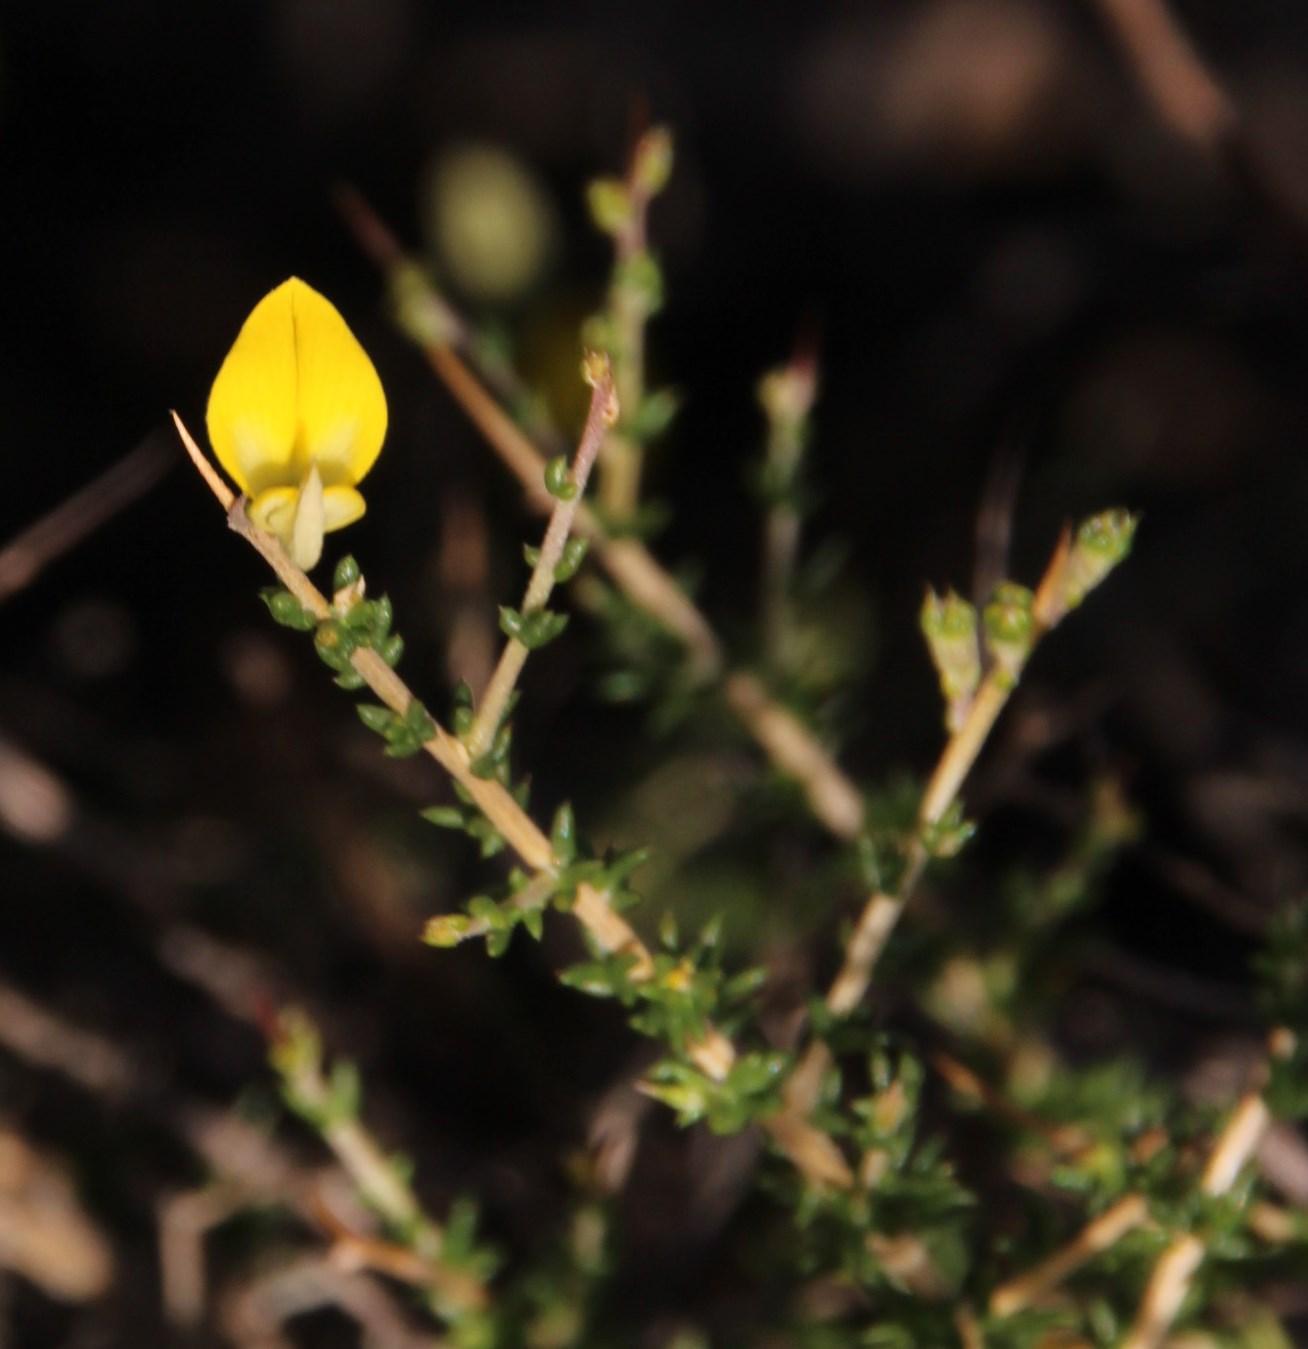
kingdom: Plantae
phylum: Tracheophyta
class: Magnoliopsida
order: Fabales
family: Fabaceae
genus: Aspalathus
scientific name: Aspalathus acuminata
